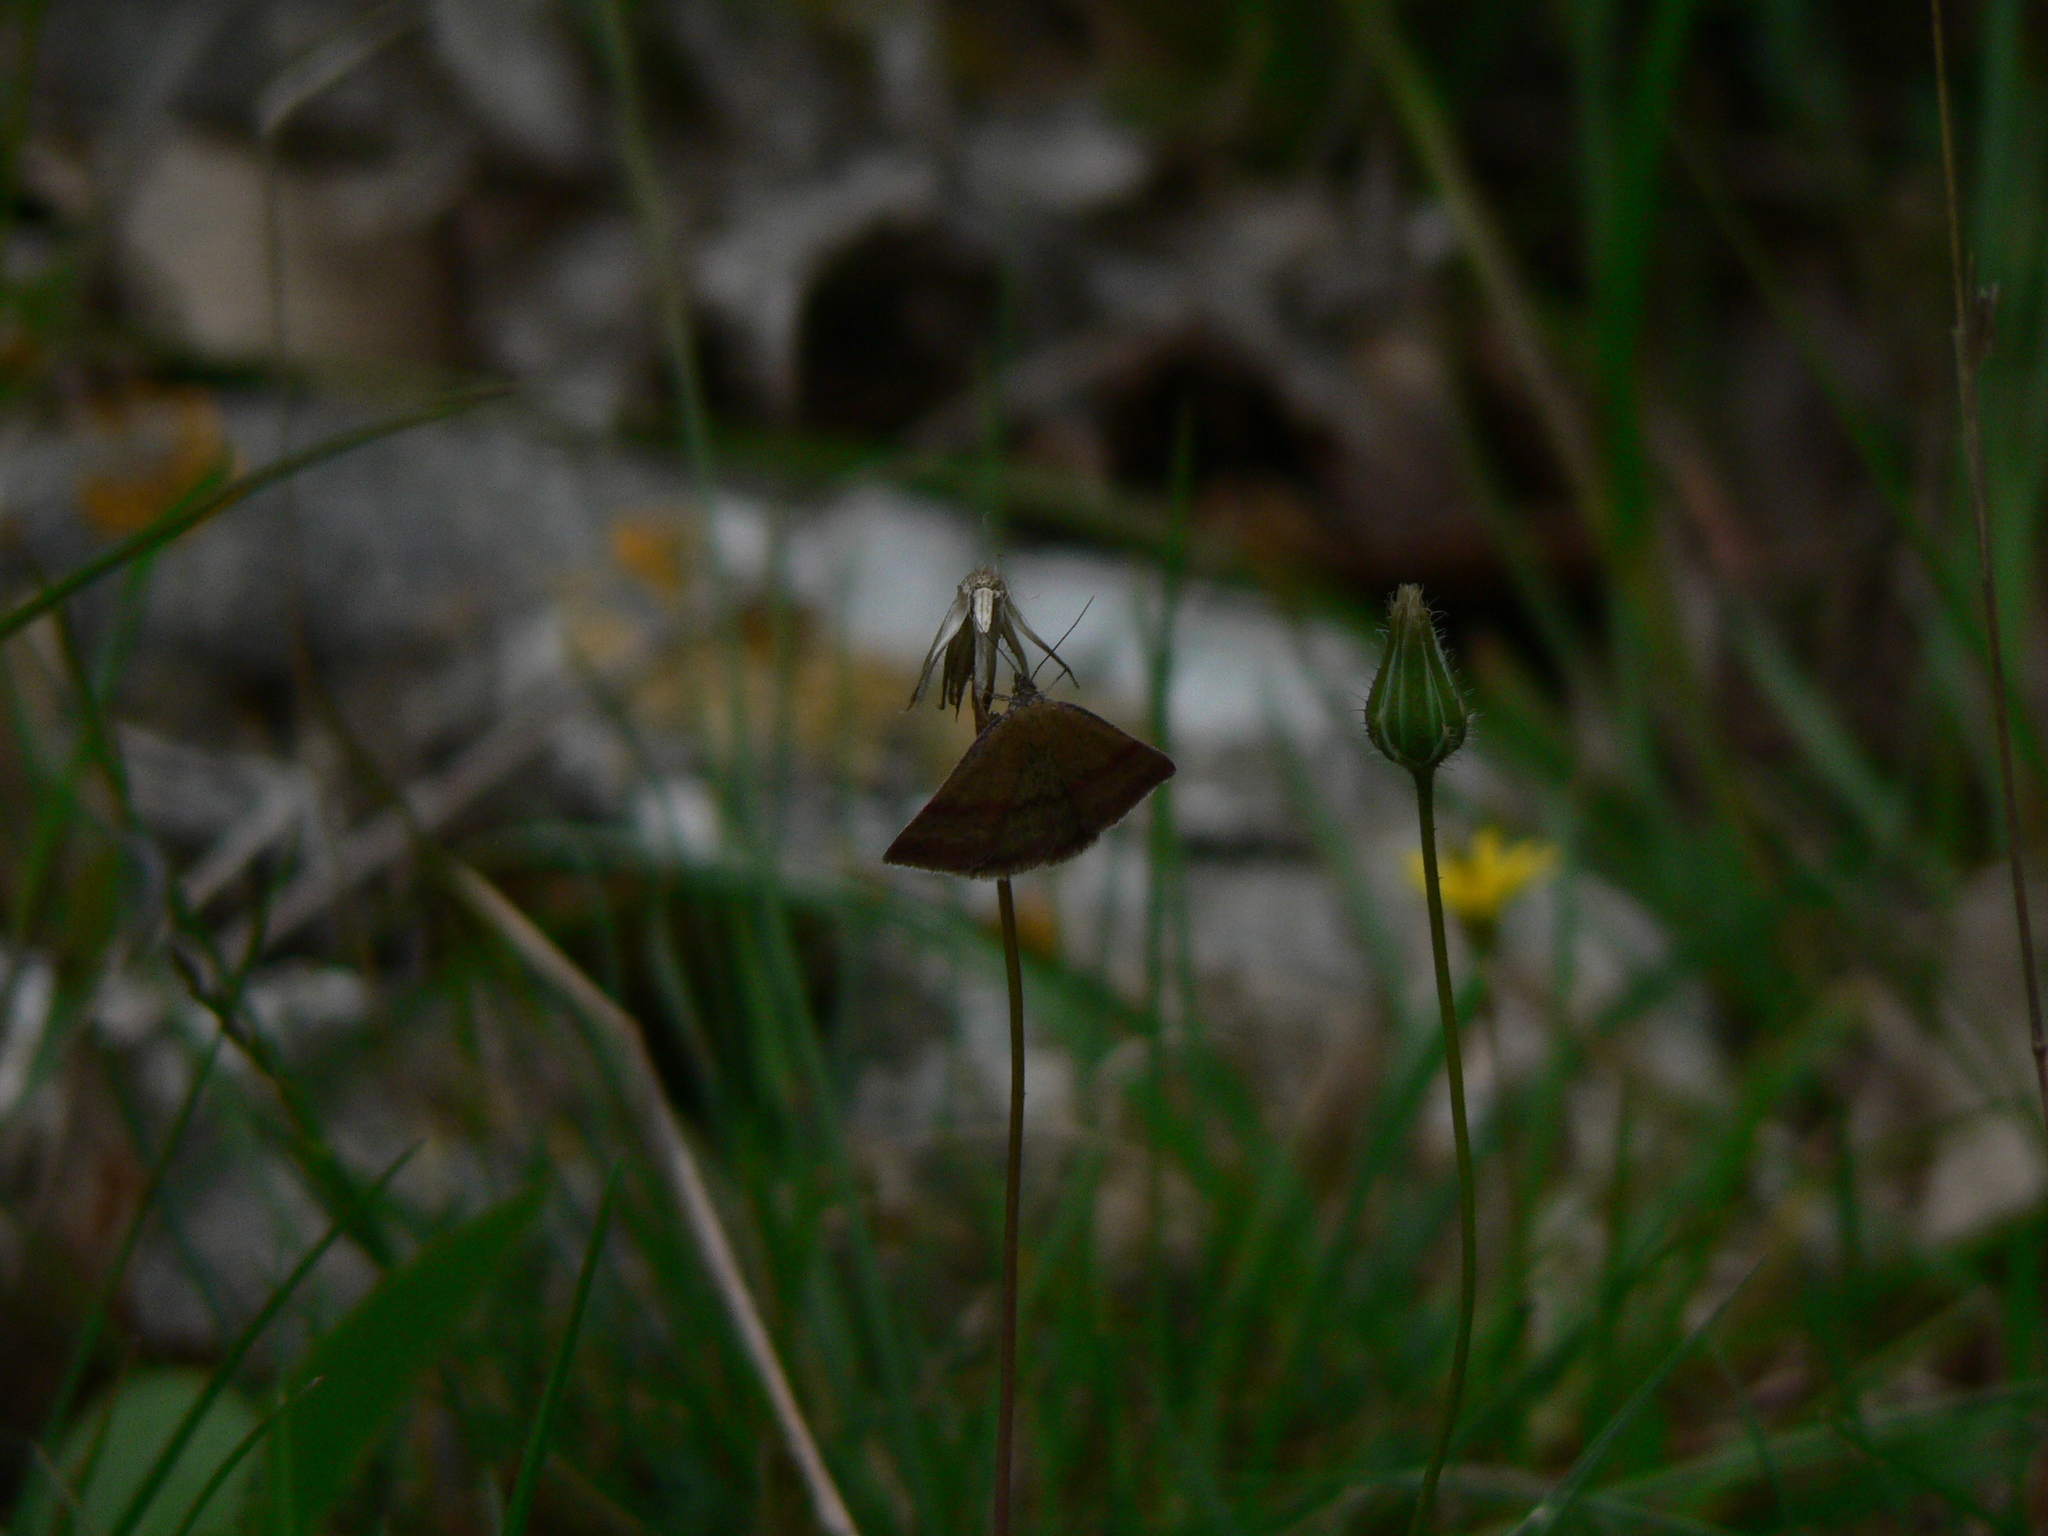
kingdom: Animalia
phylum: Arthropoda
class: Insecta
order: Lepidoptera
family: Erebidae
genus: Phytometra
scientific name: Phytometra viridaria
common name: Small purple-barred
